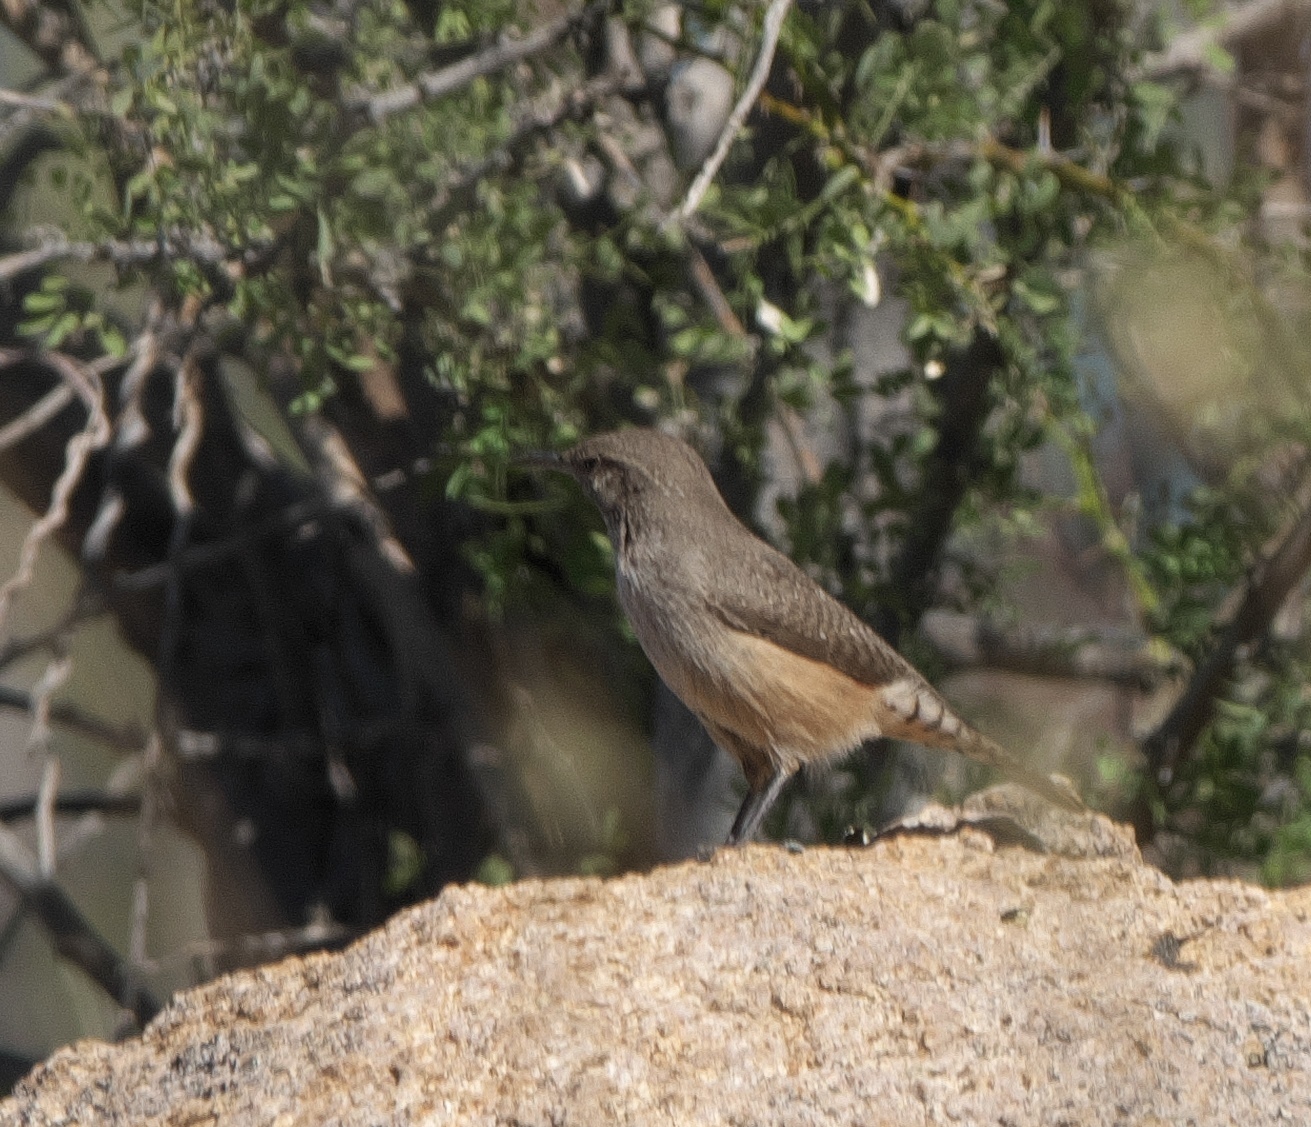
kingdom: Animalia
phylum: Chordata
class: Aves
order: Passeriformes
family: Troglodytidae
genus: Salpinctes
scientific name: Salpinctes obsoletus
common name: Rock wren
